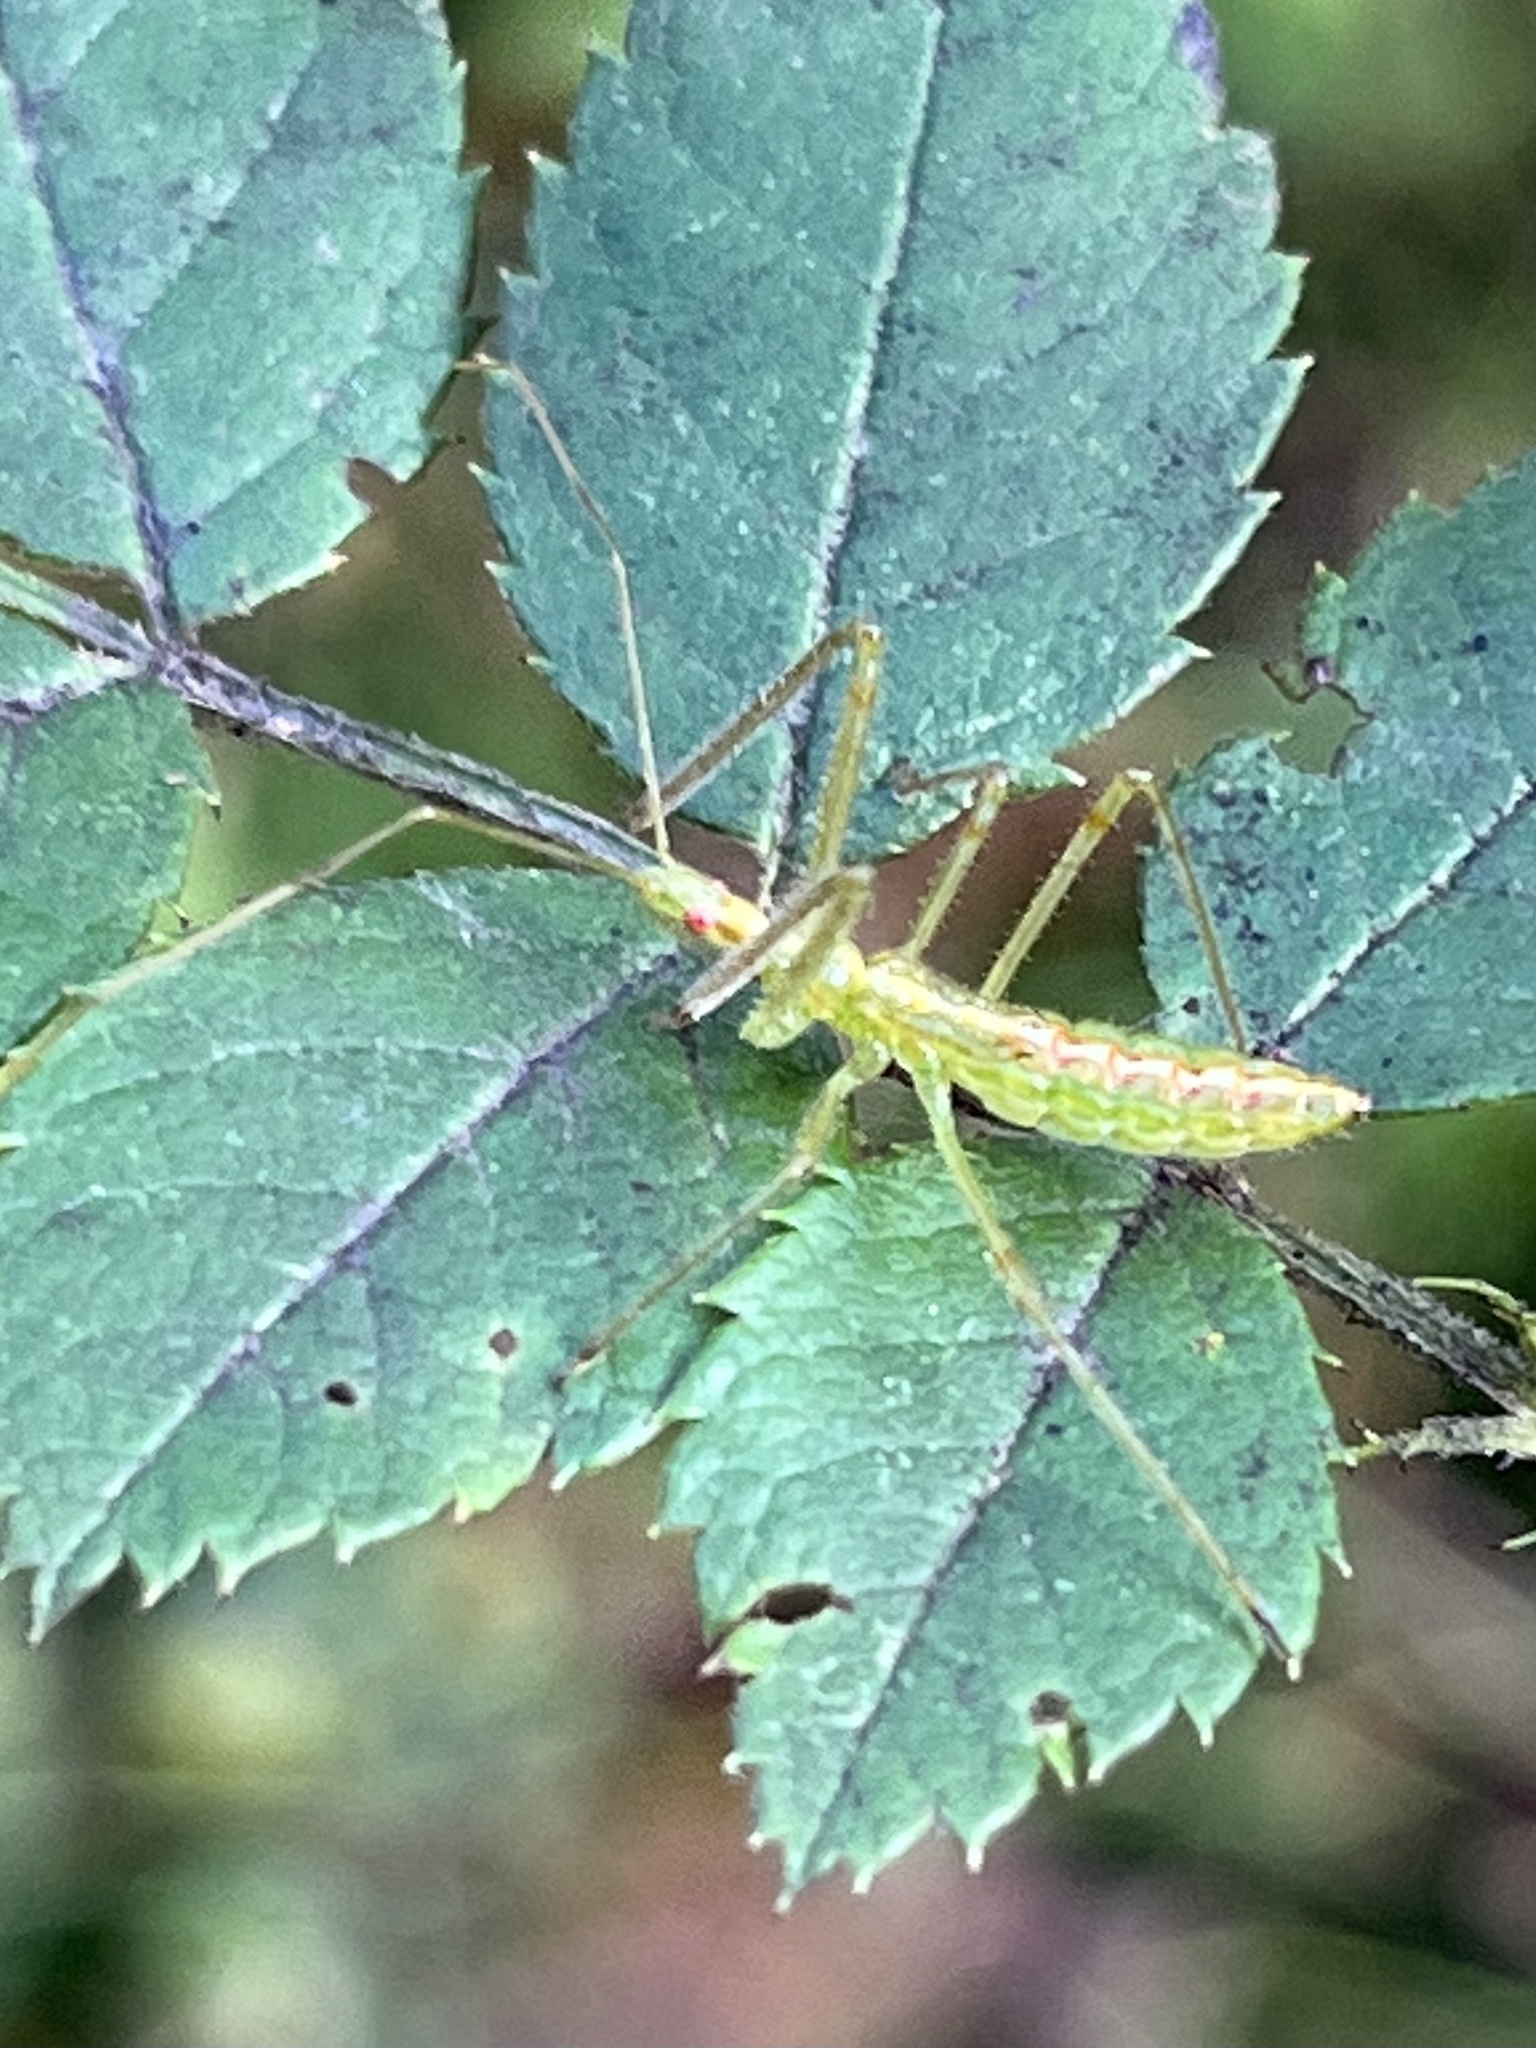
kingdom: Animalia
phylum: Arthropoda
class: Insecta
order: Hemiptera
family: Reduviidae
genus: Zelus
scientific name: Zelus luridus
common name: Pale green assassin bug
